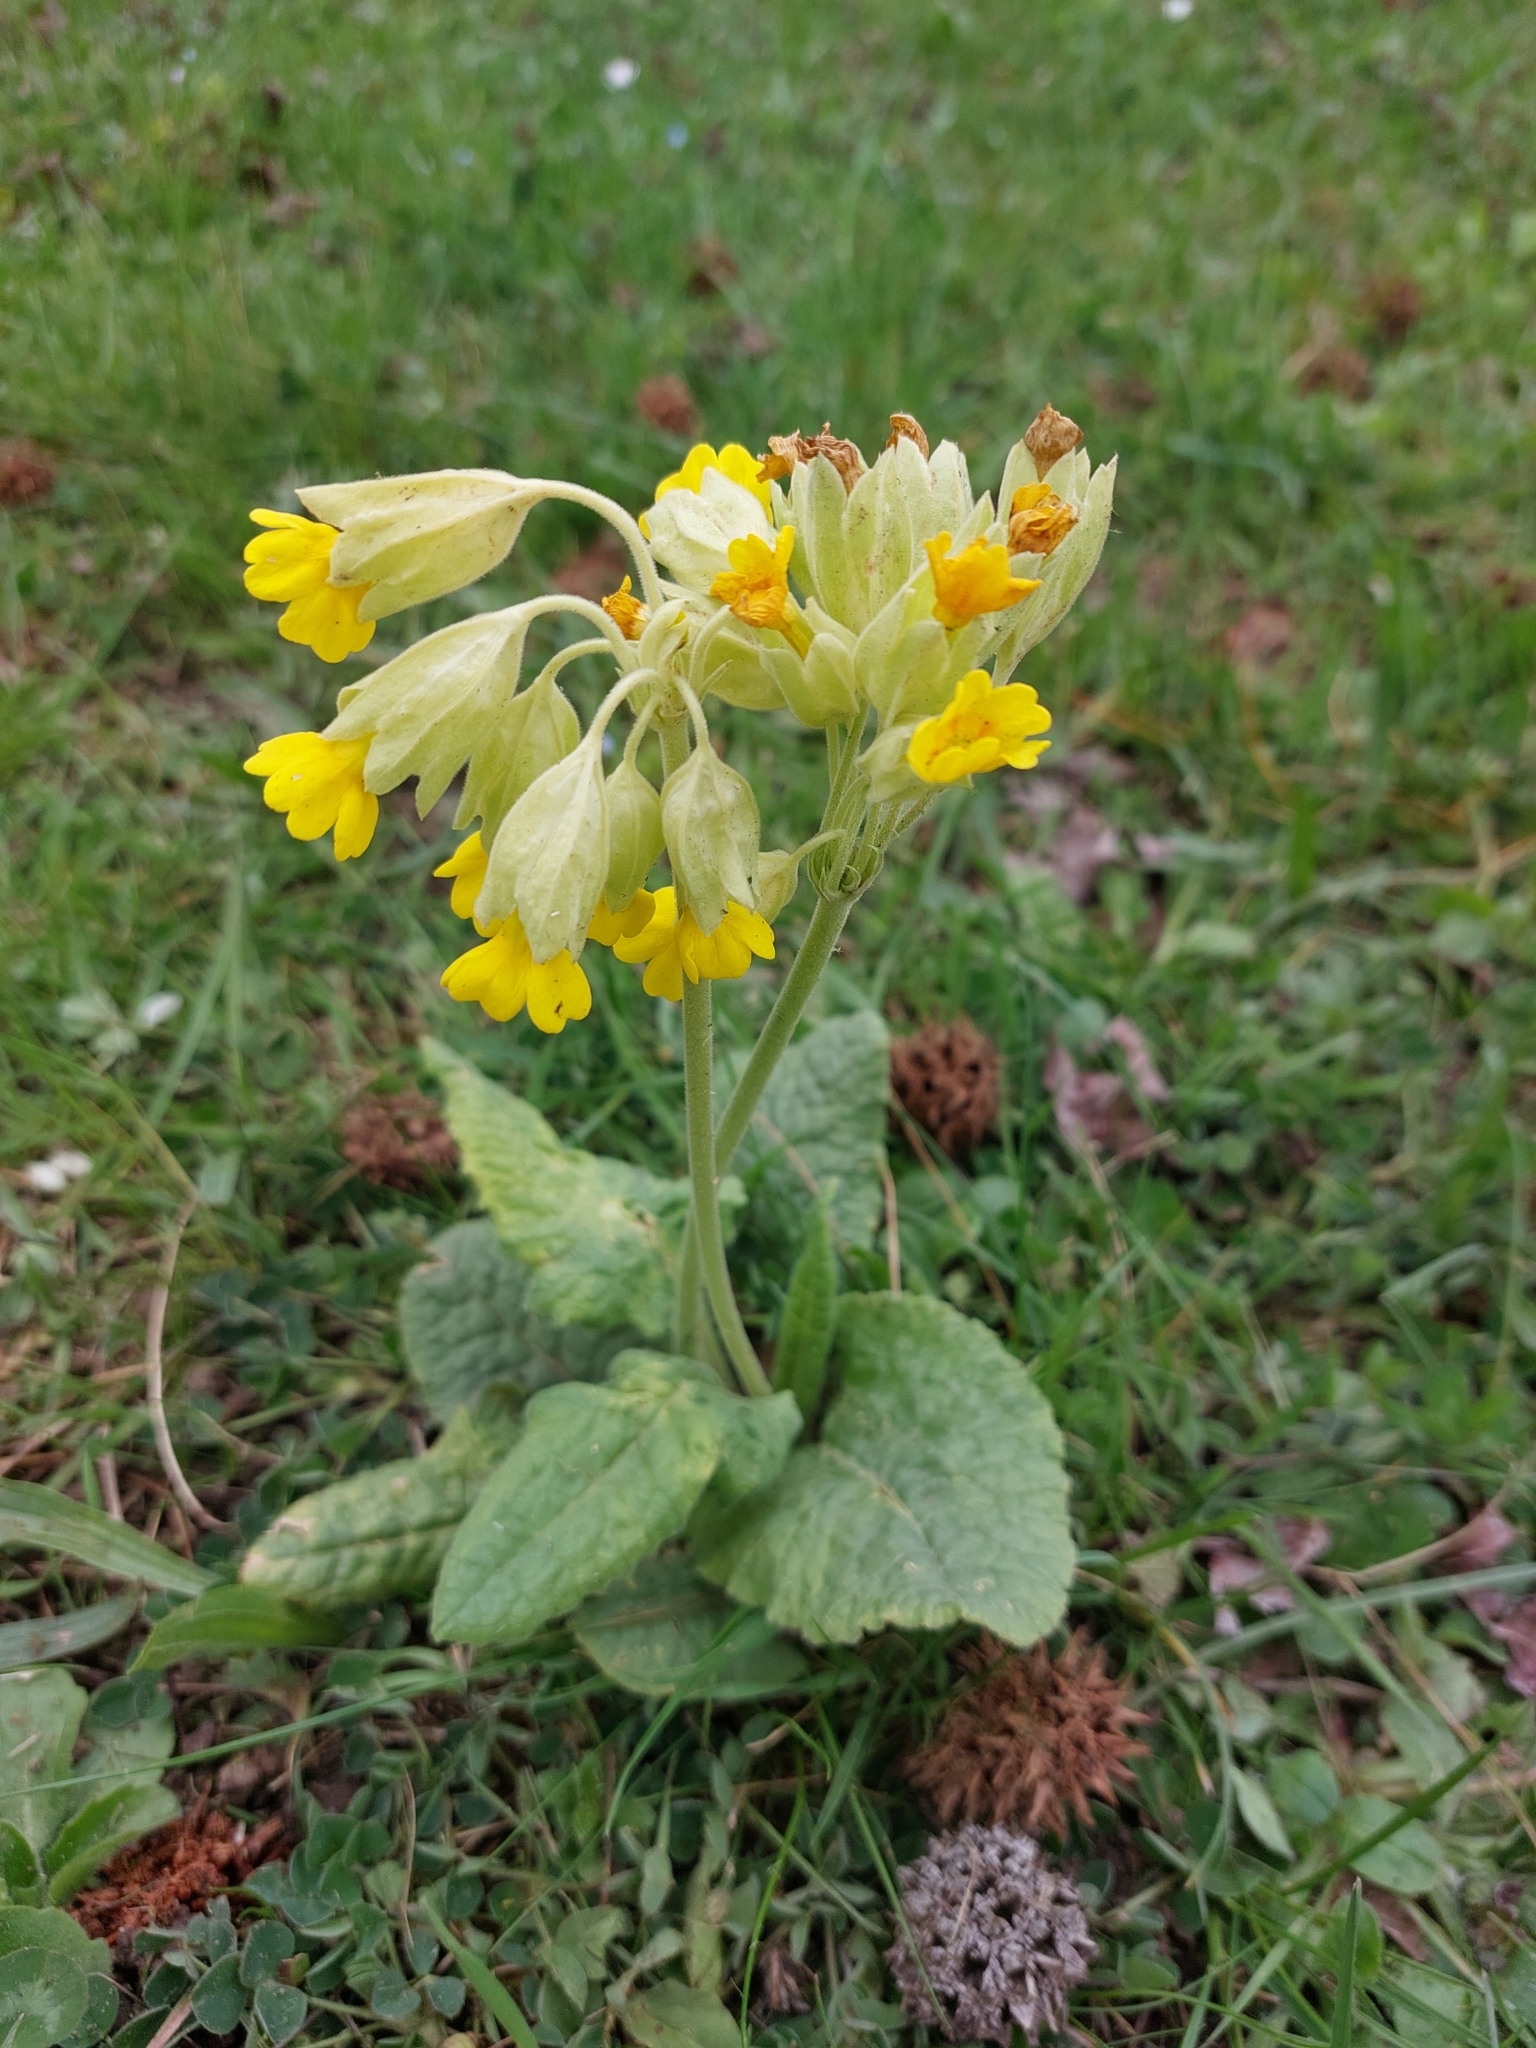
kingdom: Plantae
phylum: Tracheophyta
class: Magnoliopsida
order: Ericales
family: Primulaceae
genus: Primula
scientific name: Primula veris
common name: Cowslip
